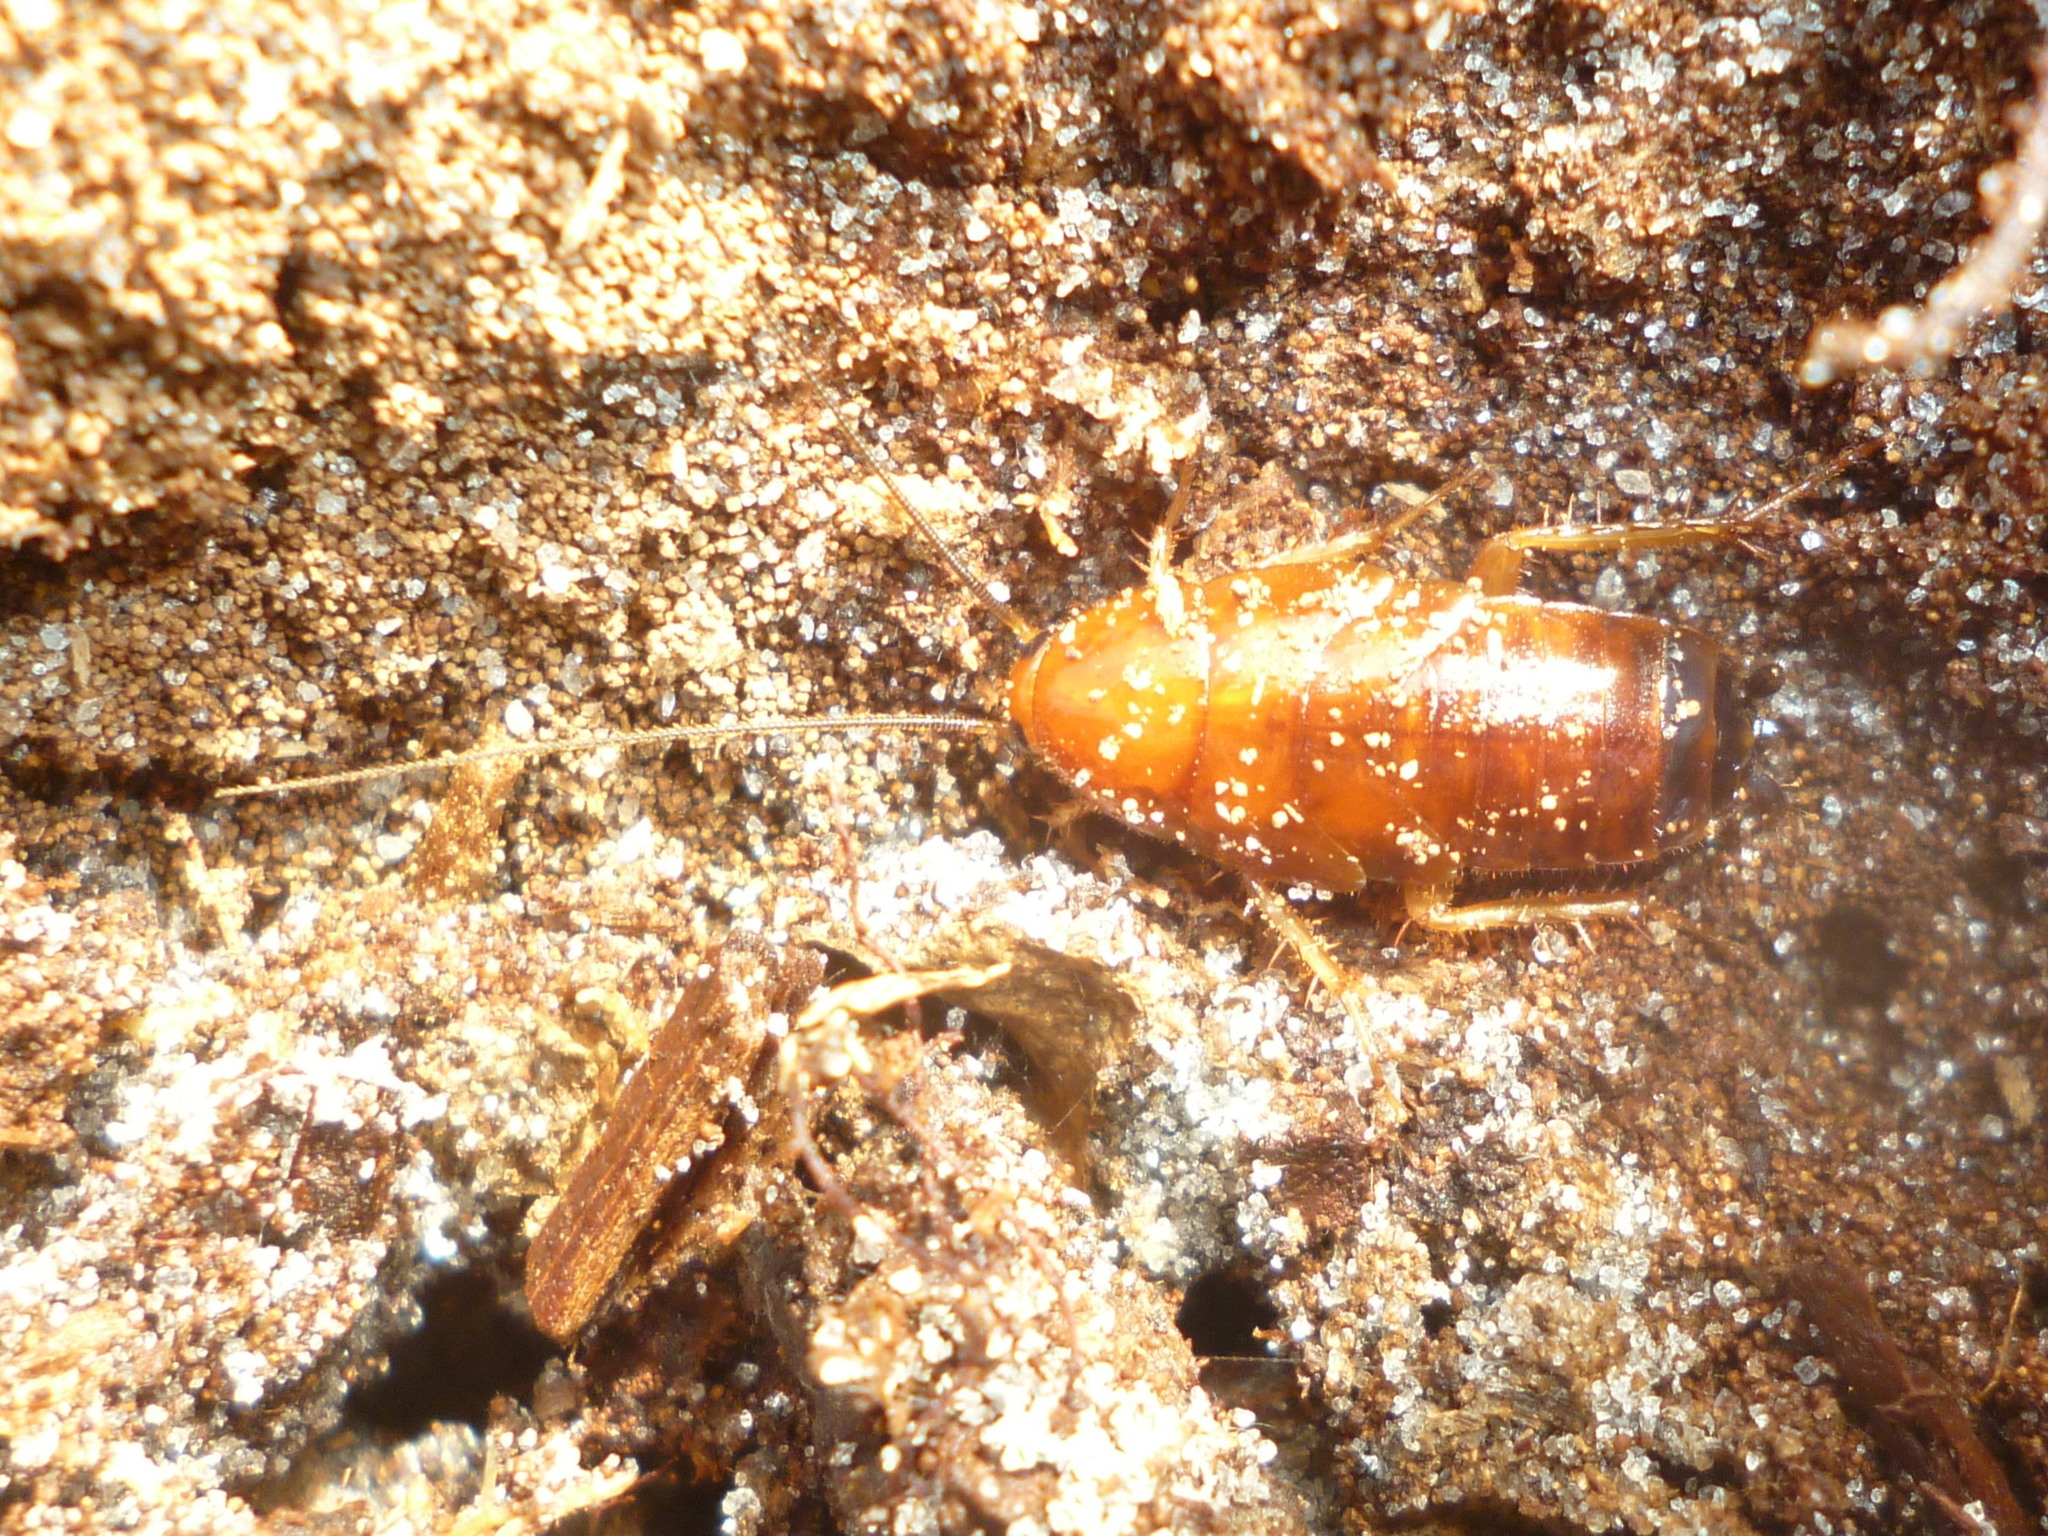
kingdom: Animalia
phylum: Arthropoda
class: Insecta
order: Blattodea
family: Ectobiidae
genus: Parcoblatta
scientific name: Parcoblatta fulvescens
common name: Fulvous wood cockroach
